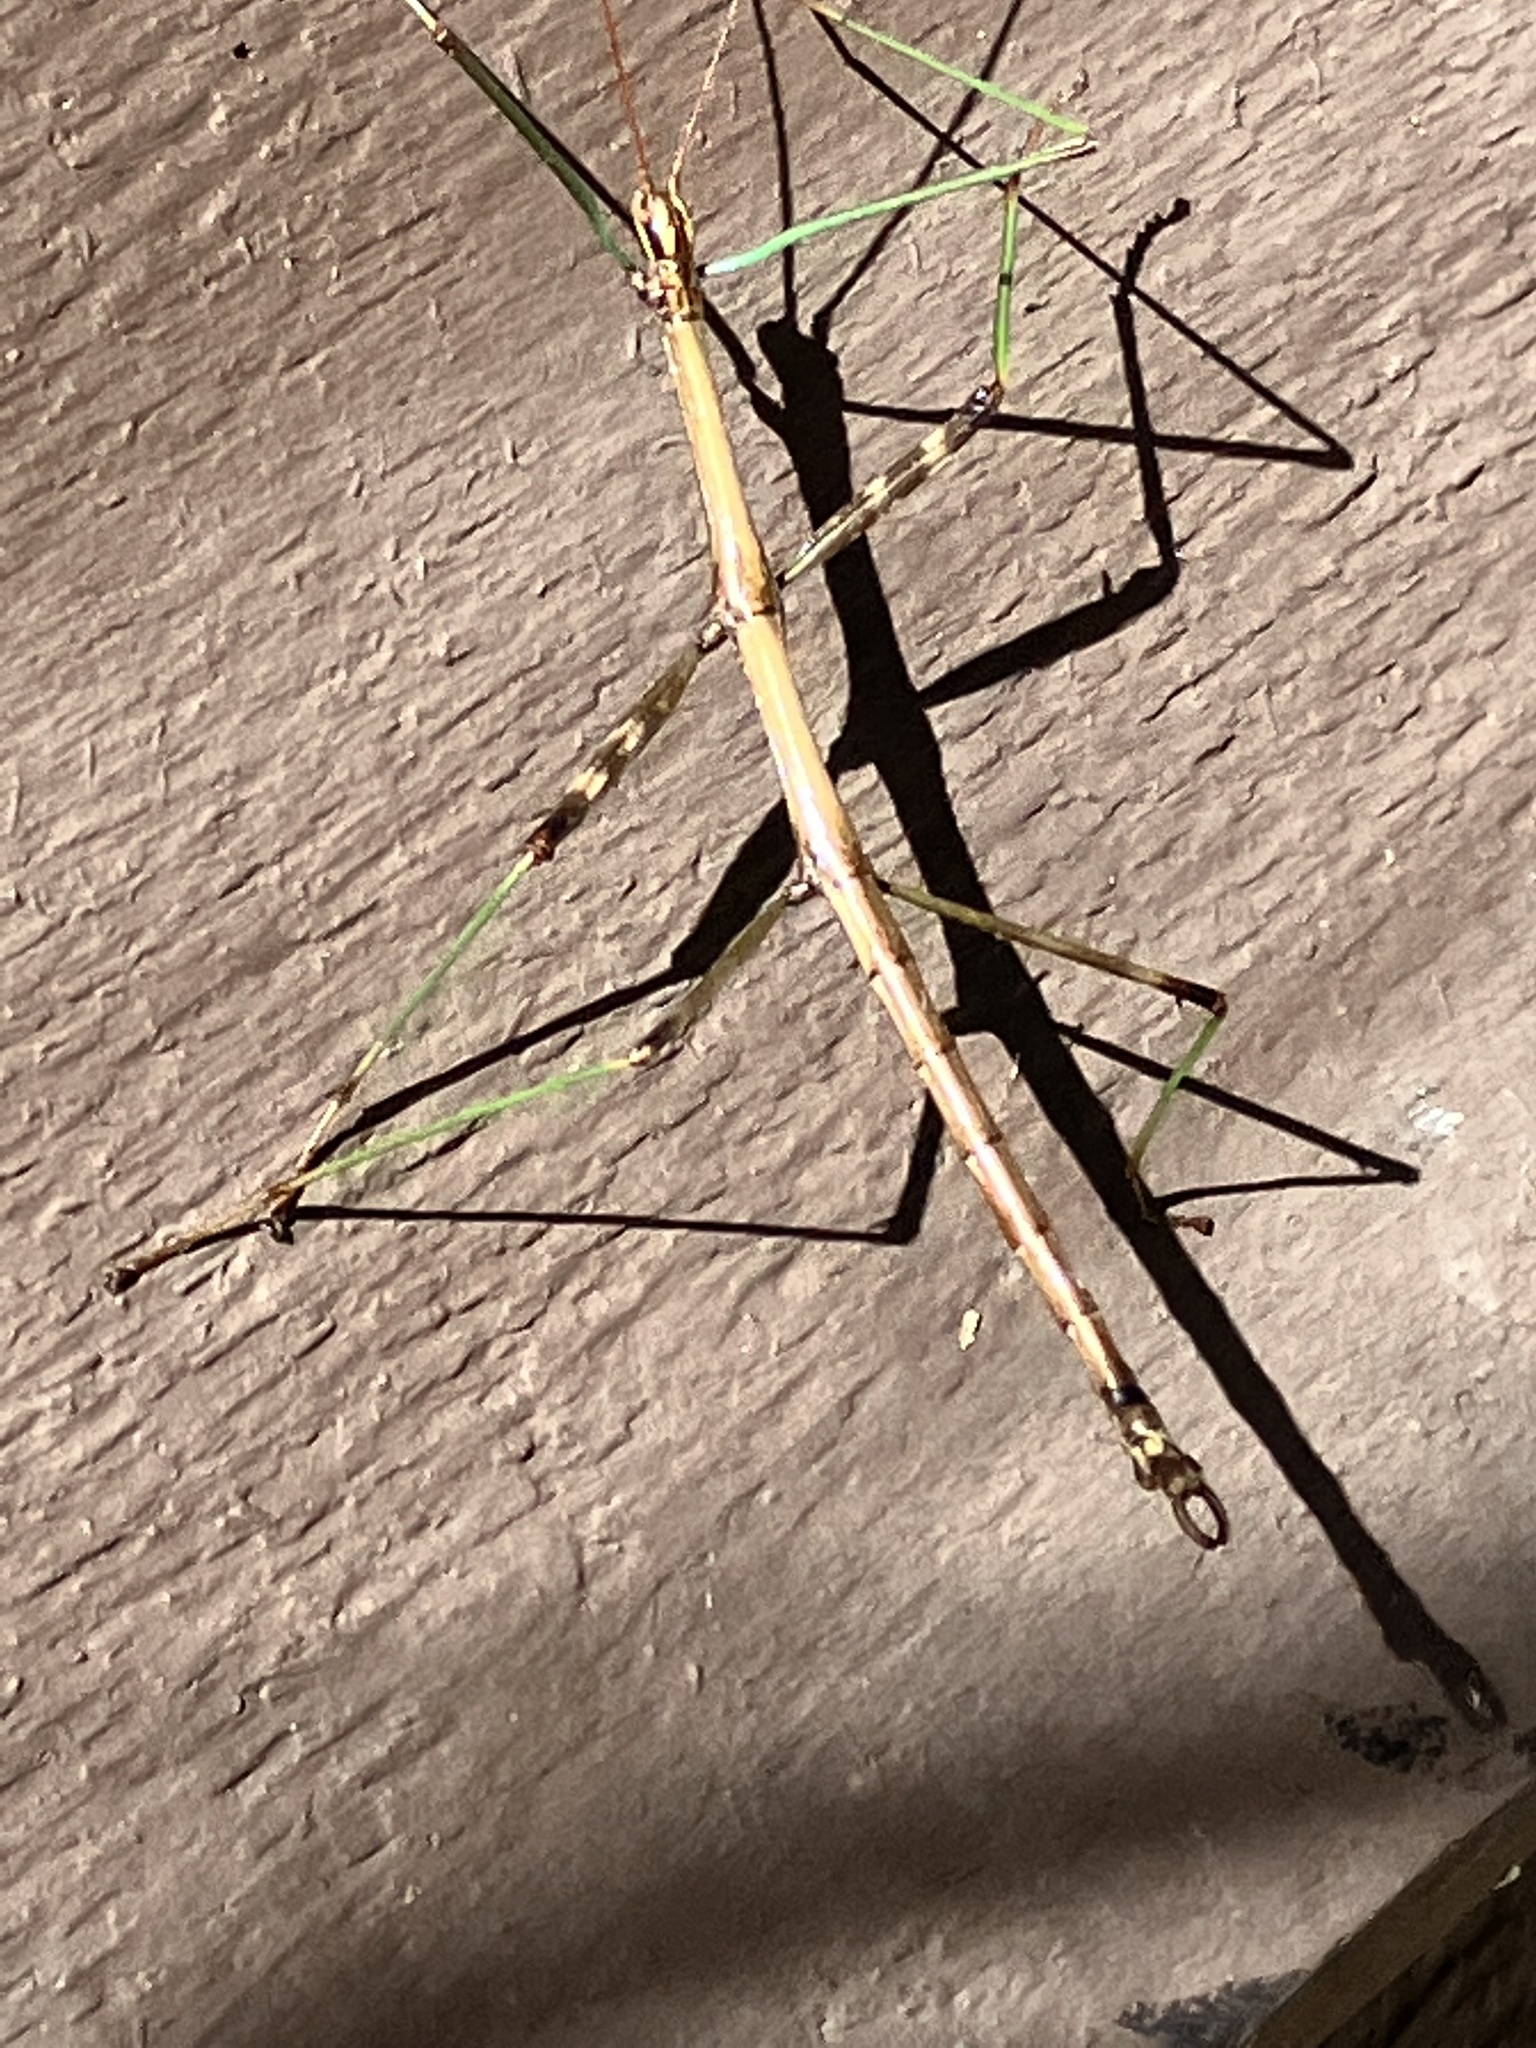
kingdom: Animalia
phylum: Arthropoda
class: Insecta
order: Phasmida
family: Diapheromeridae
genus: Diapheromera
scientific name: Diapheromera femorata
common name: Common american walkingstick
